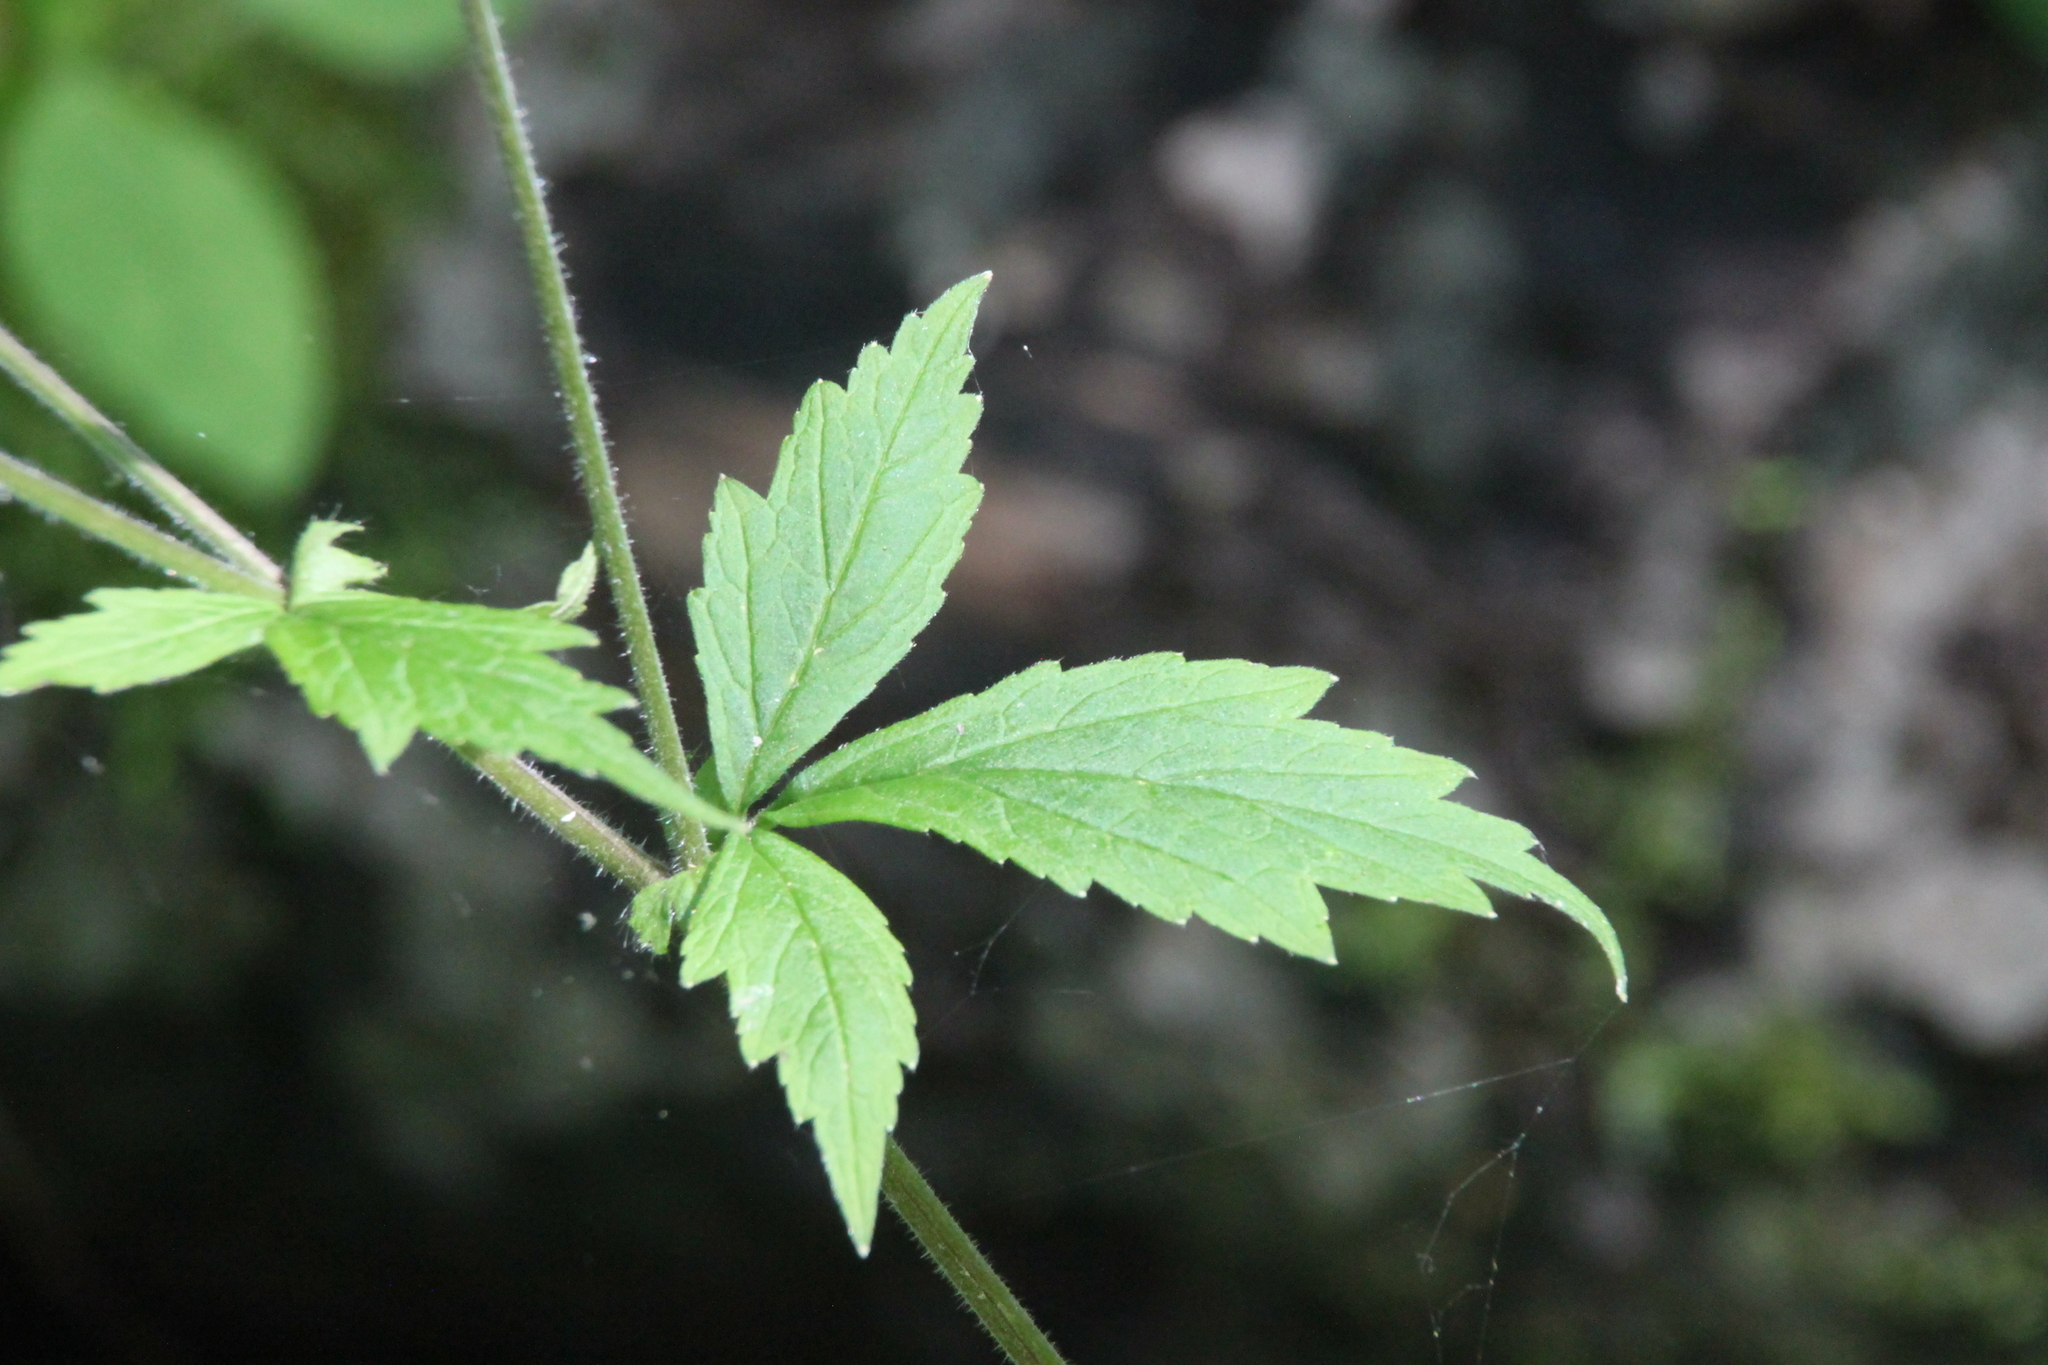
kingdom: Plantae
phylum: Tracheophyta
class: Magnoliopsida
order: Rosales
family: Rosaceae
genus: Geum
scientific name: Geum rivale
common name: Water avens
